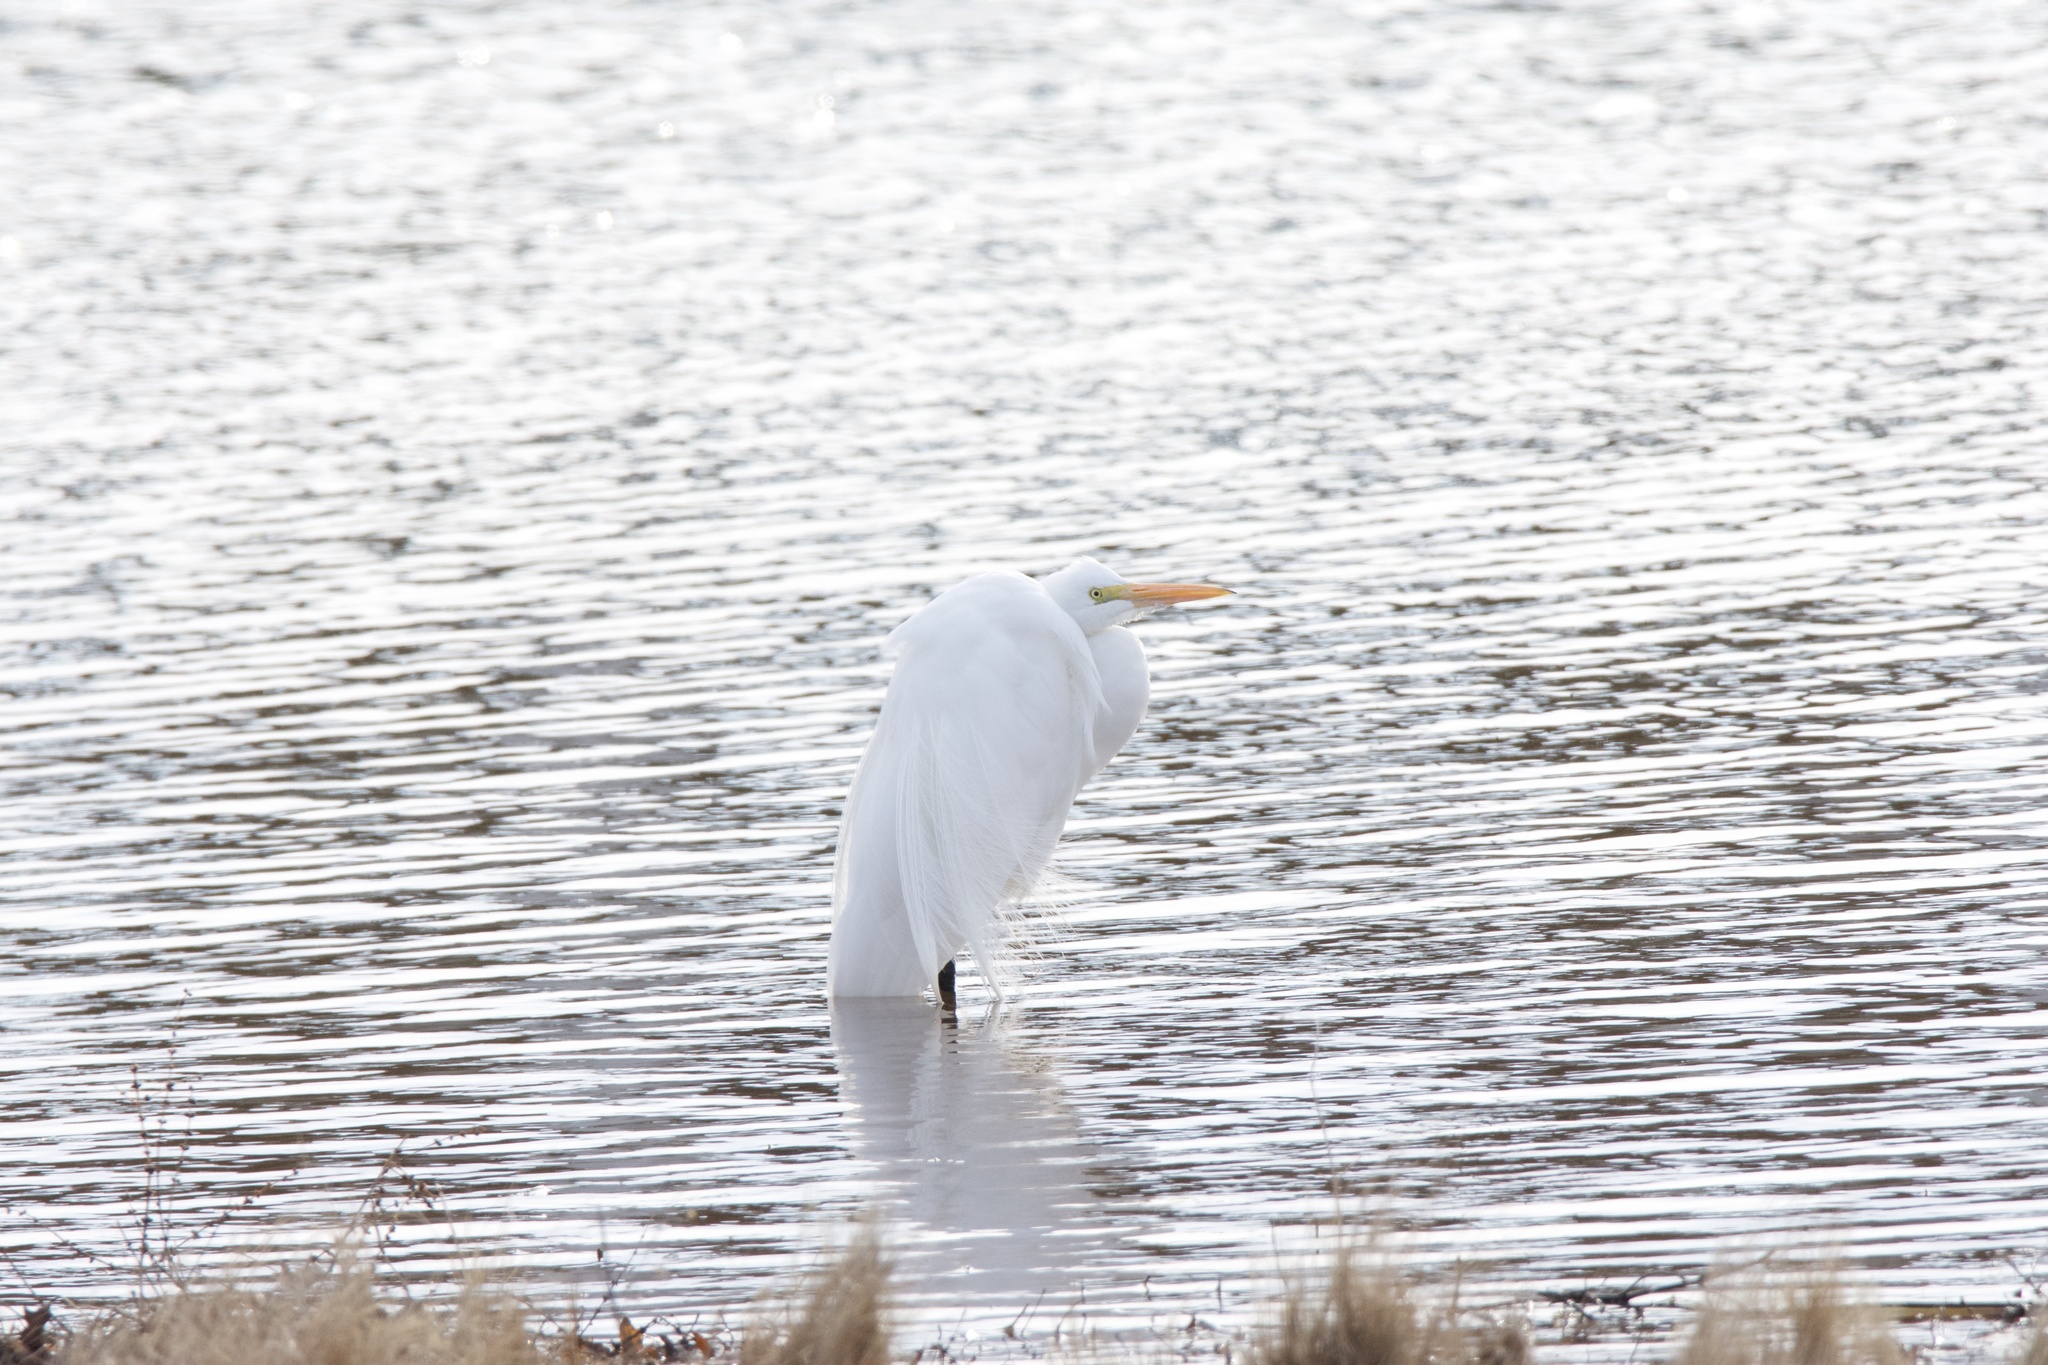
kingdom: Animalia
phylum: Chordata
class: Aves
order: Pelecaniformes
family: Ardeidae
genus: Ardea
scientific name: Ardea alba
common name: Great egret
